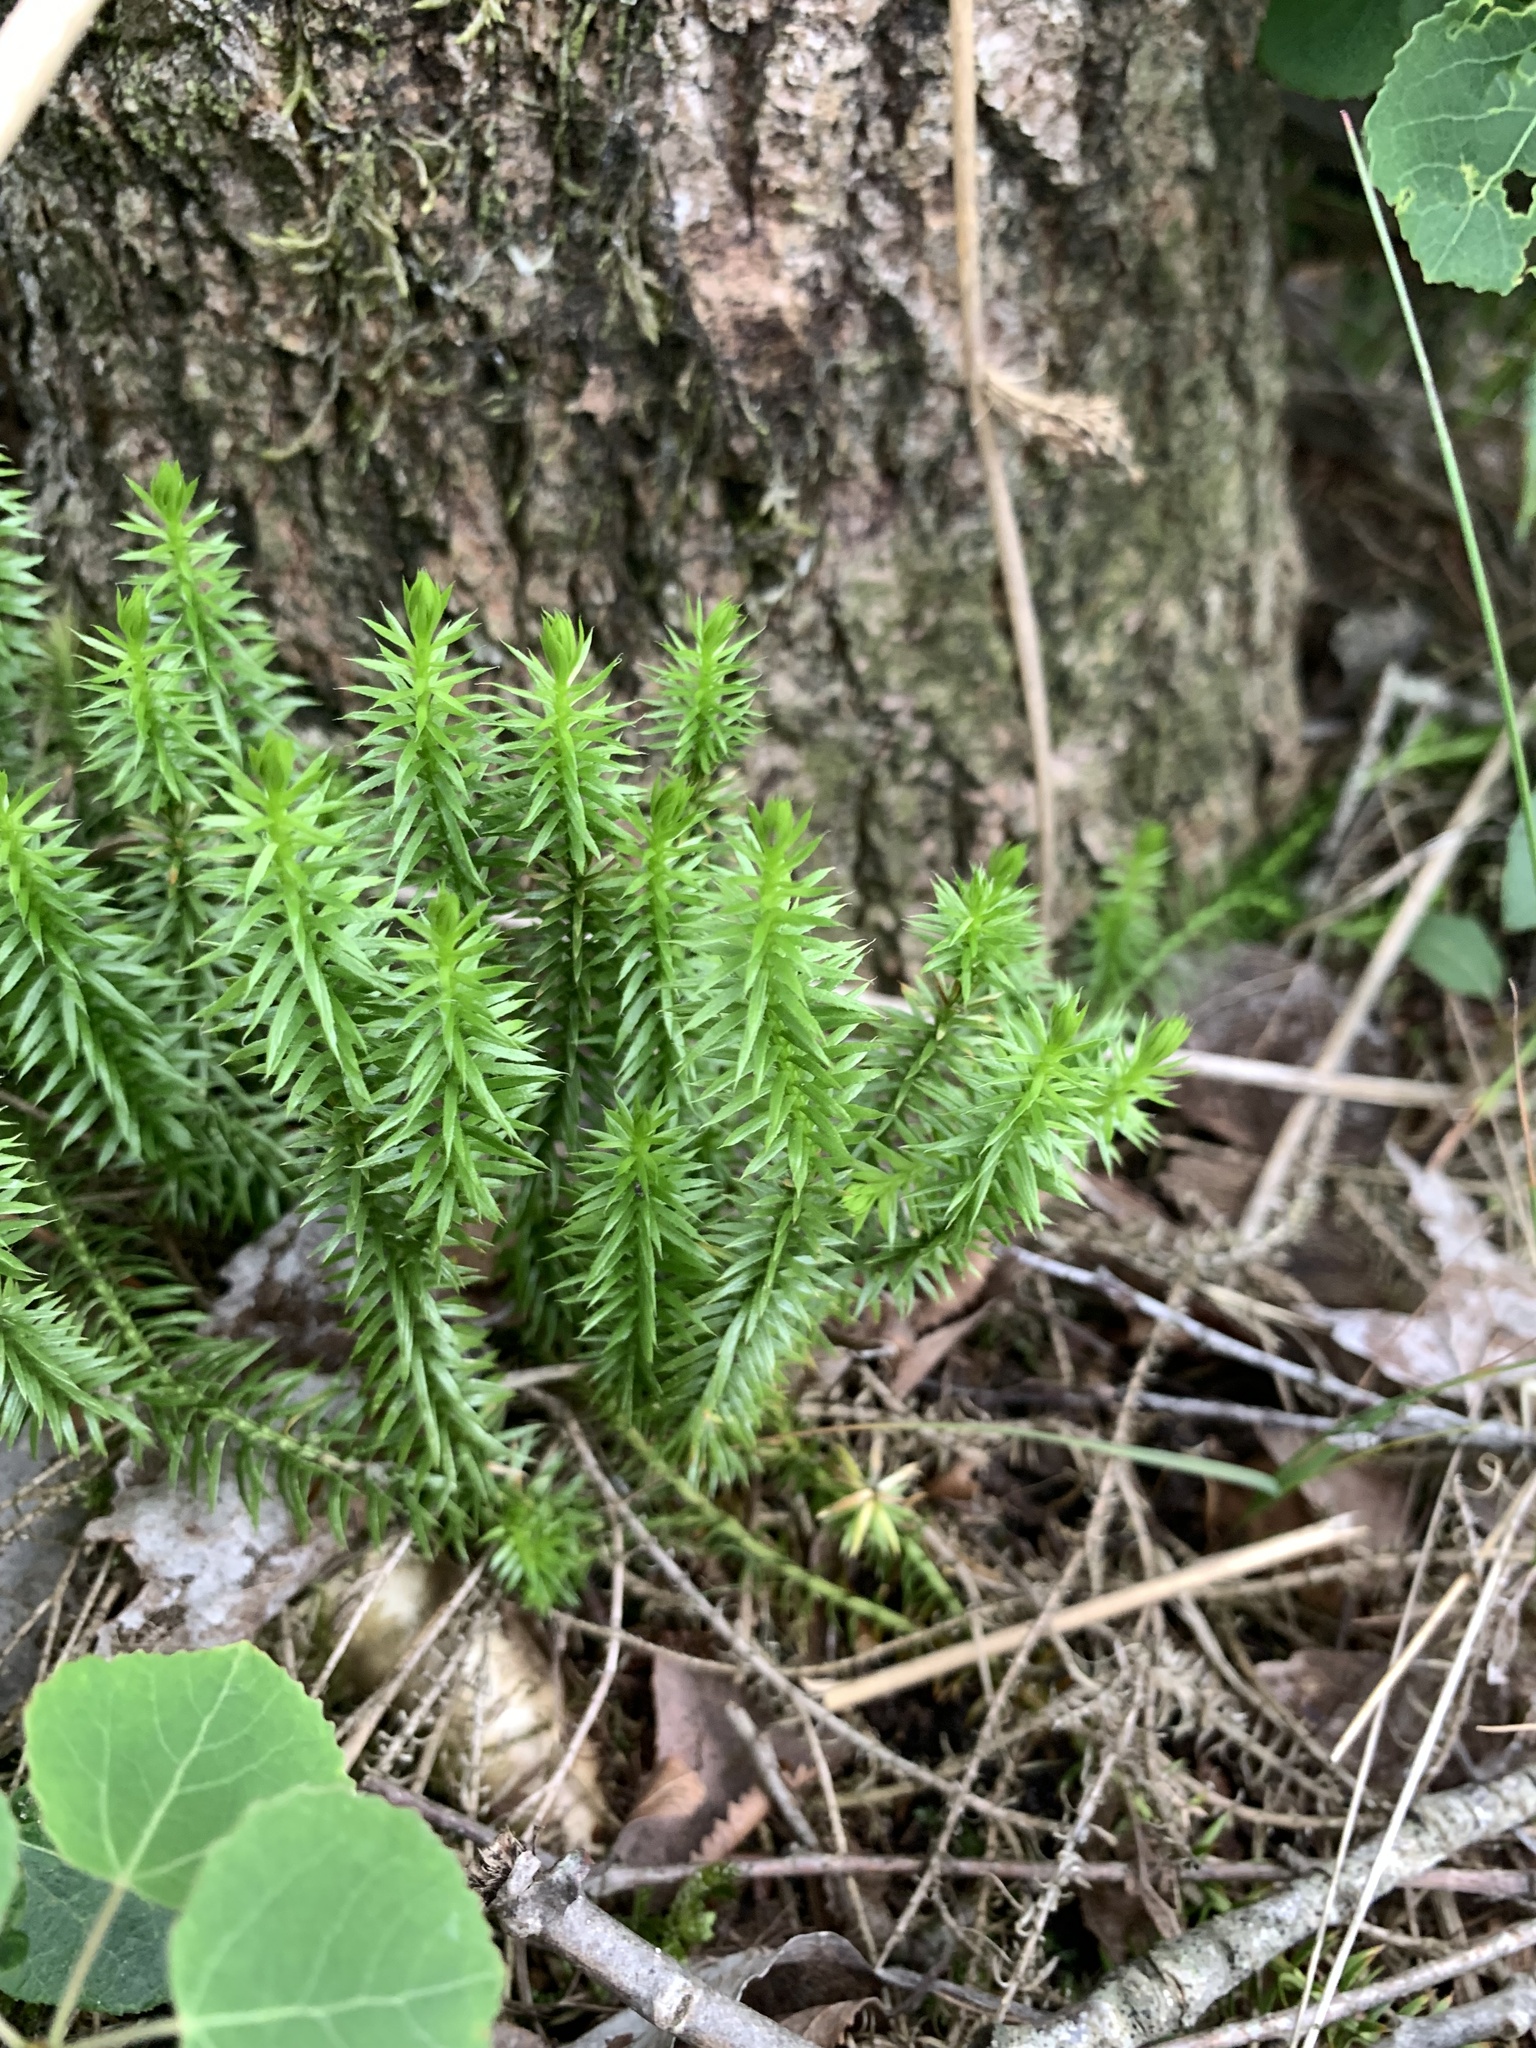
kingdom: Plantae
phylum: Tracheophyta
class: Lycopodiopsida
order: Lycopodiales
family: Lycopodiaceae
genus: Spinulum
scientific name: Spinulum annotinum
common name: Interrupted club-moss
